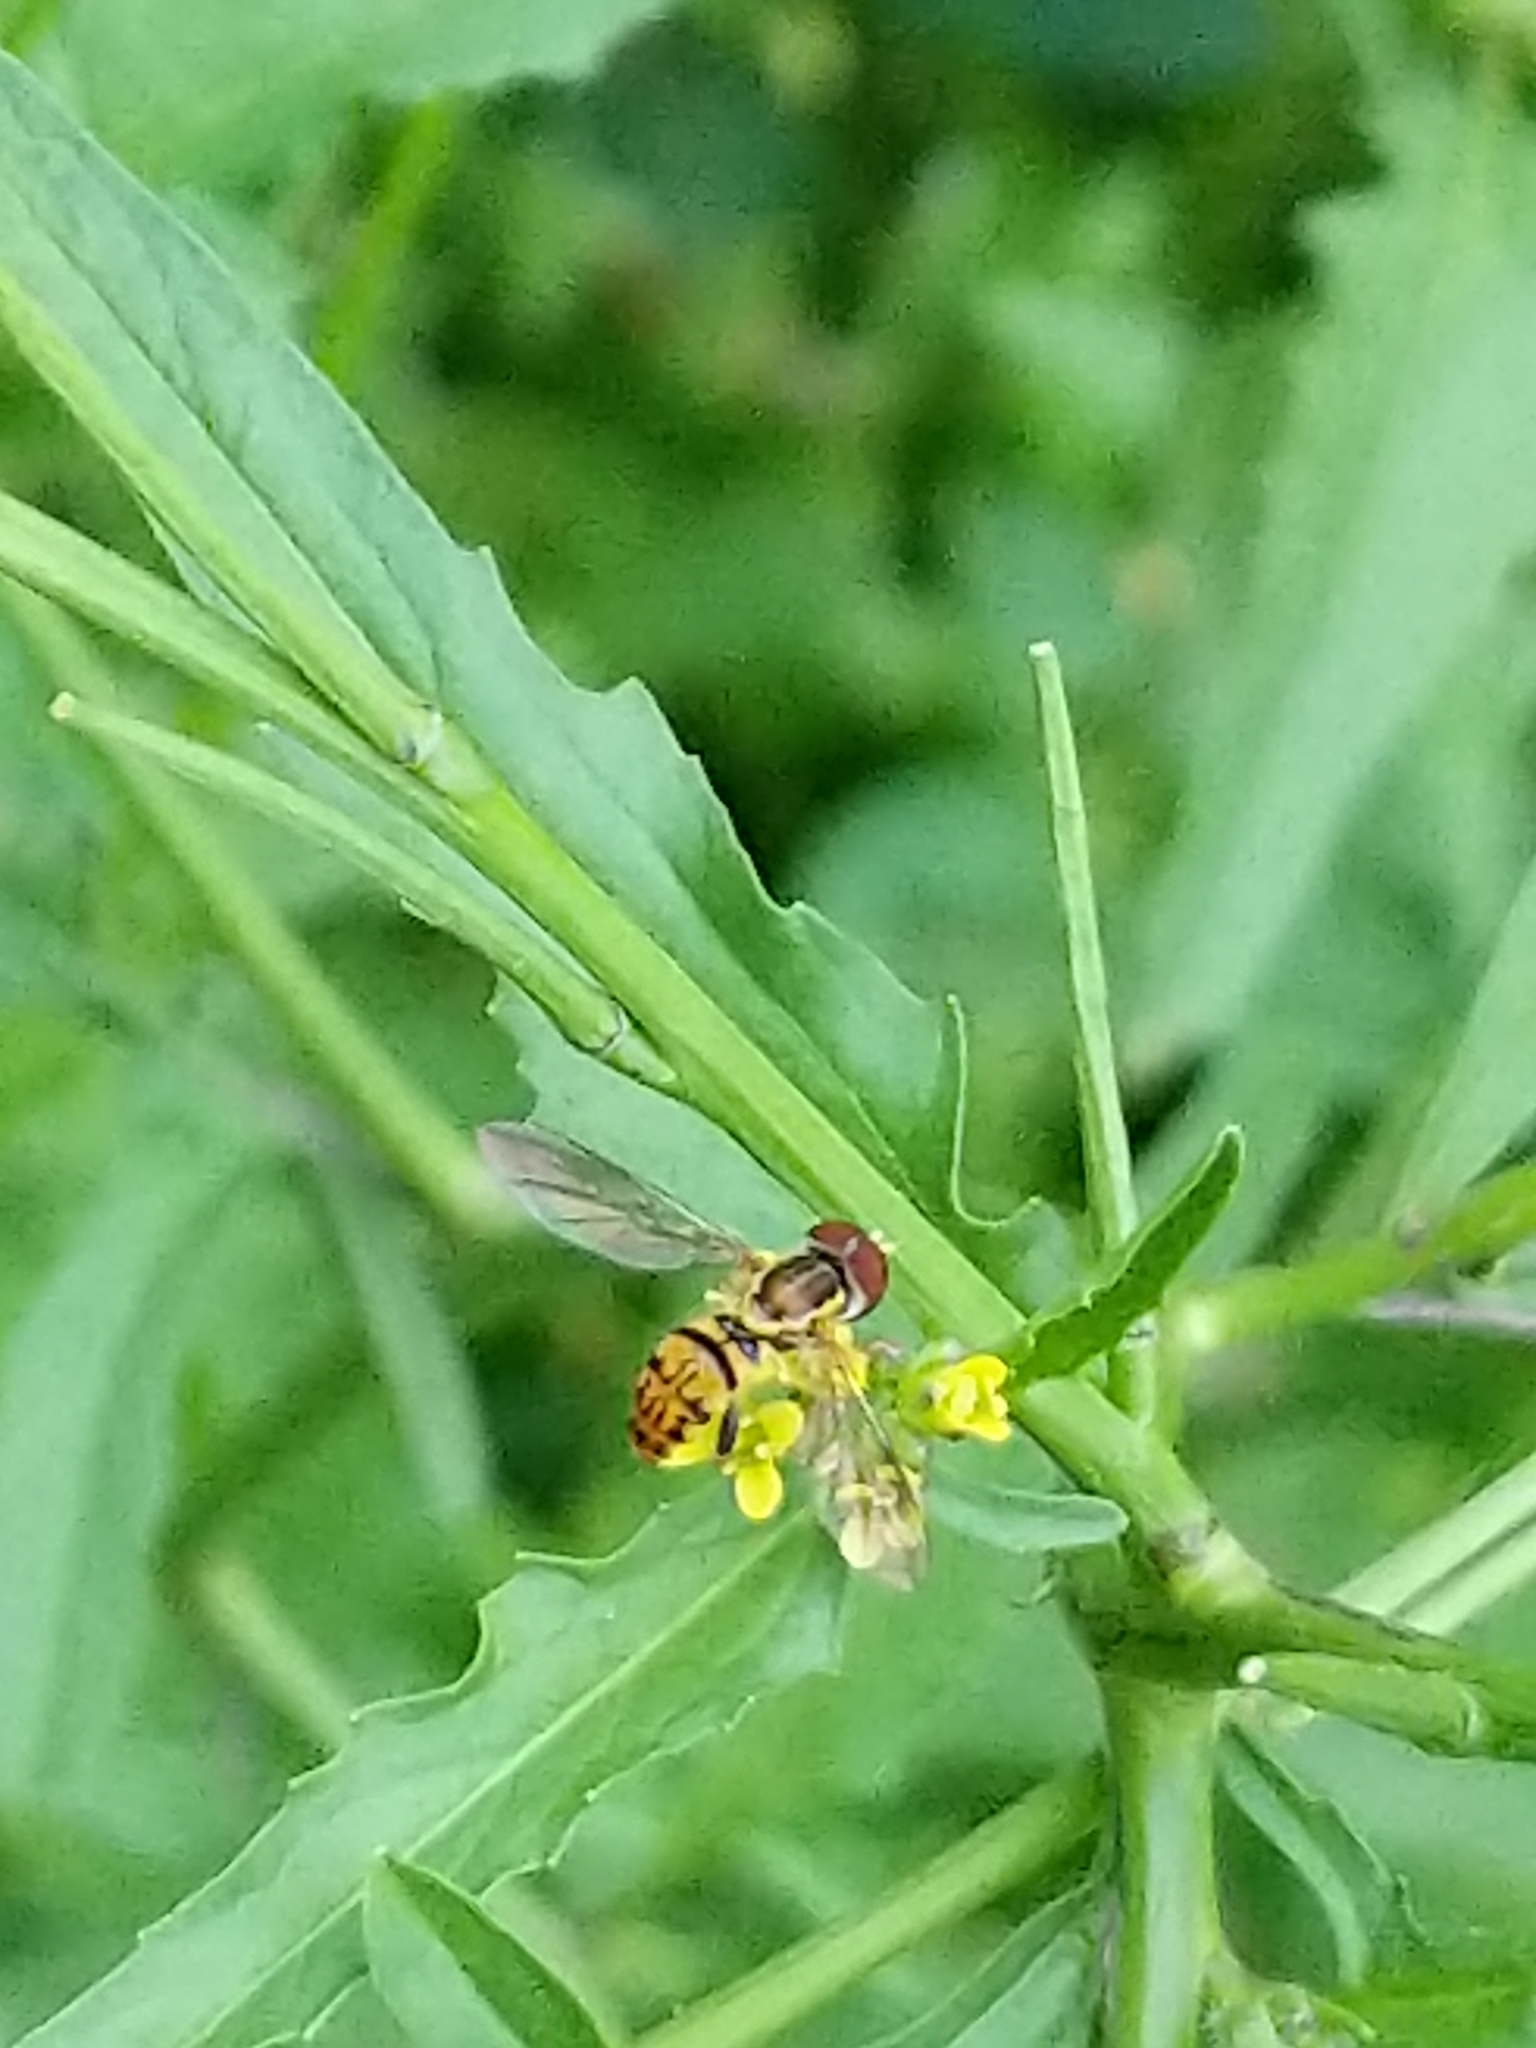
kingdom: Animalia
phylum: Arthropoda
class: Insecta
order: Diptera
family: Syrphidae
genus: Toxomerus
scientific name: Toxomerus geminatus
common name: Eastern calligrapher
